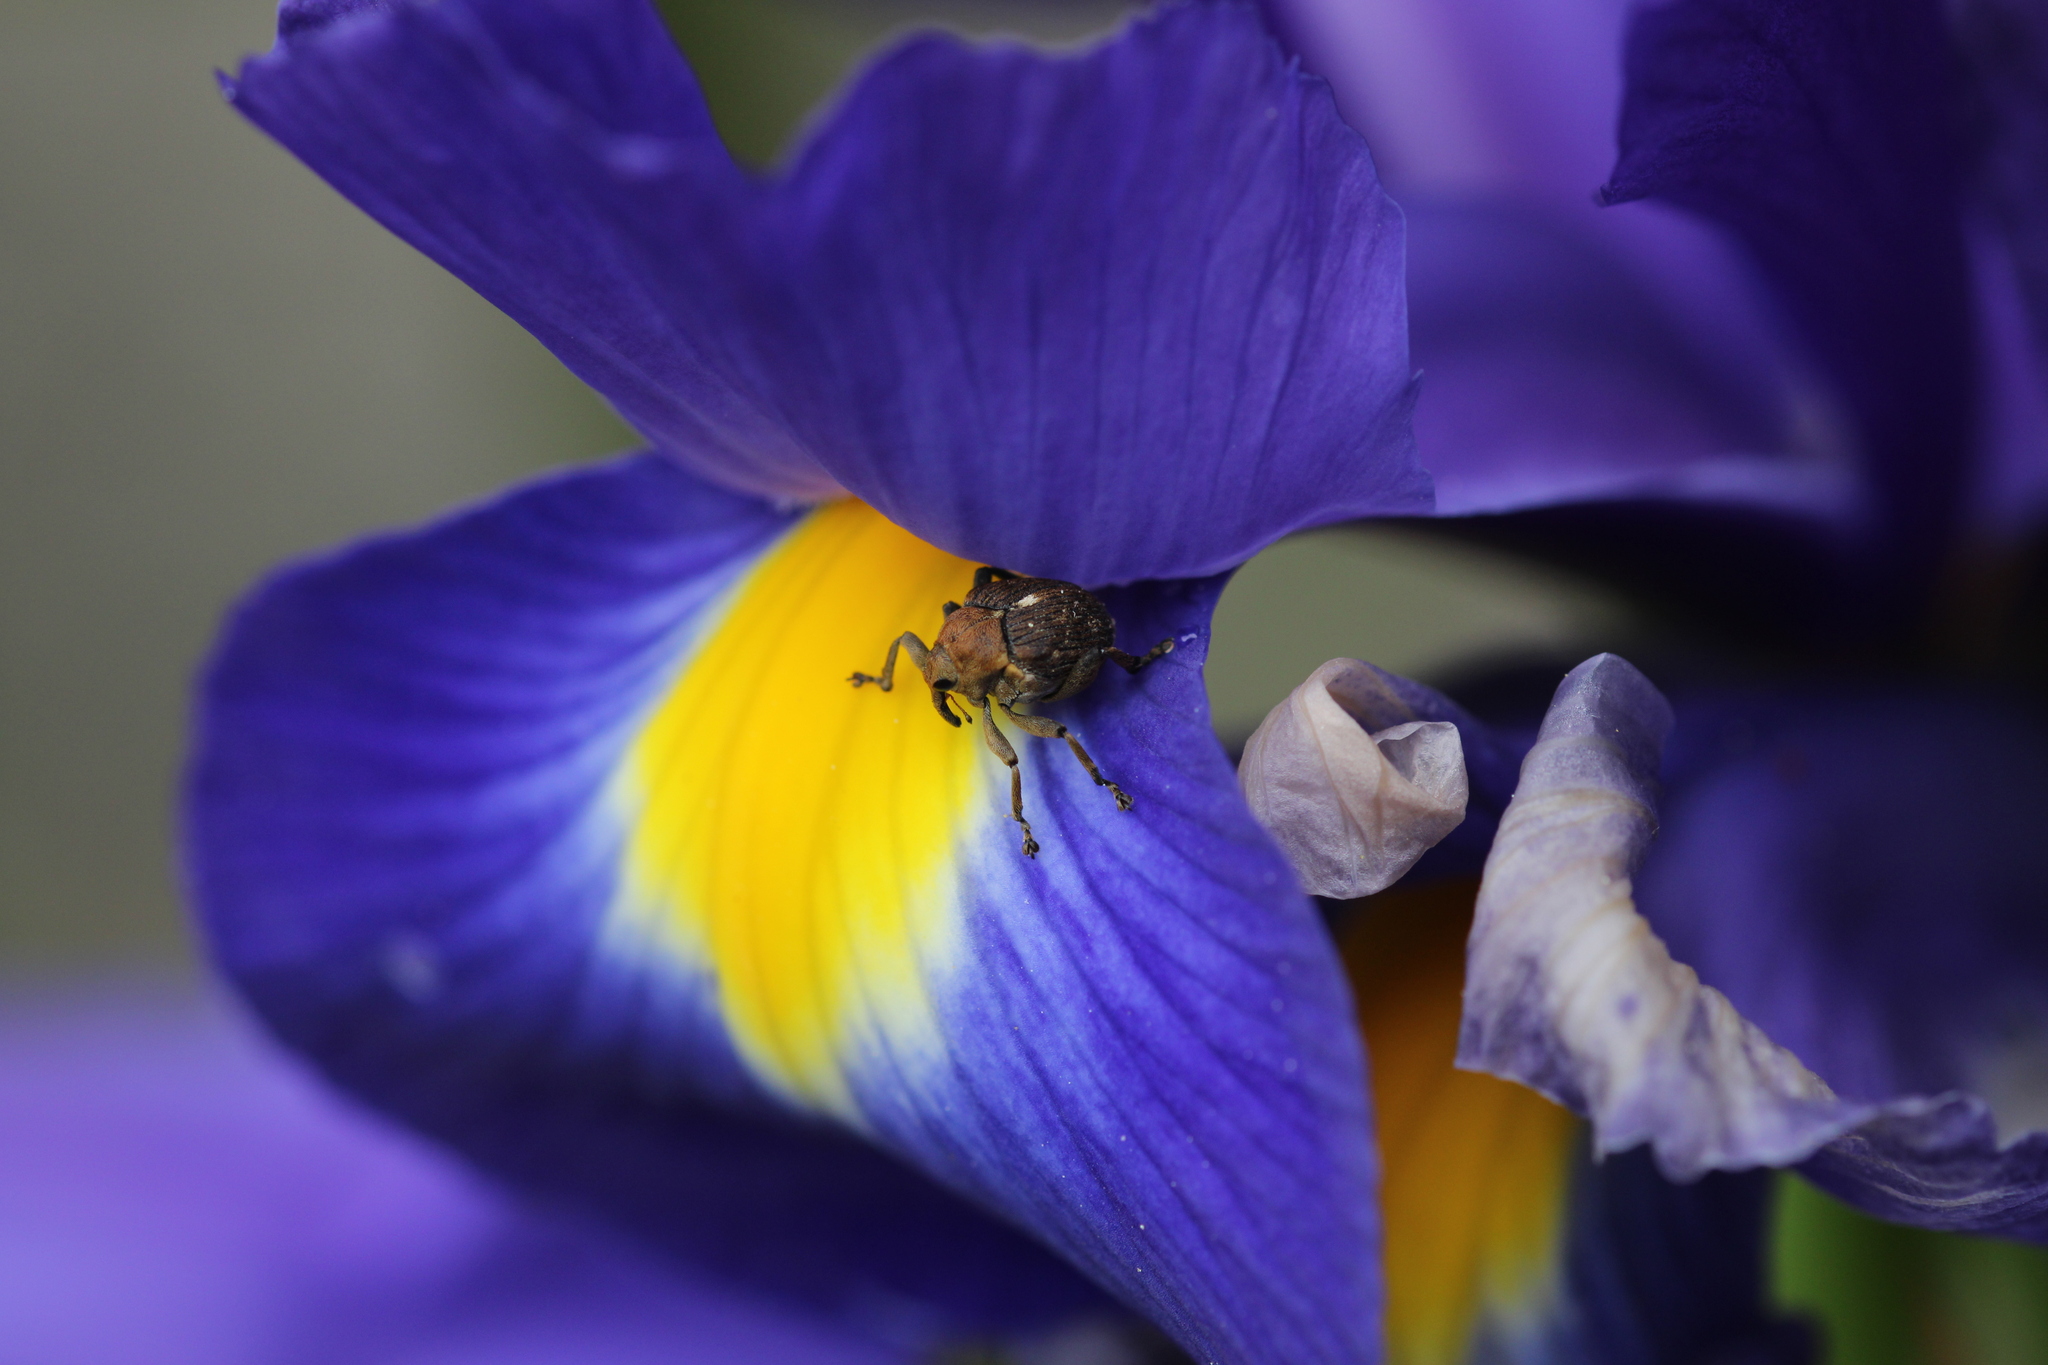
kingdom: Animalia
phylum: Arthropoda
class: Insecta
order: Coleoptera
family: Curculionidae
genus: Mononychus
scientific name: Mononychus punctumalbum
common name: Iris weevil
